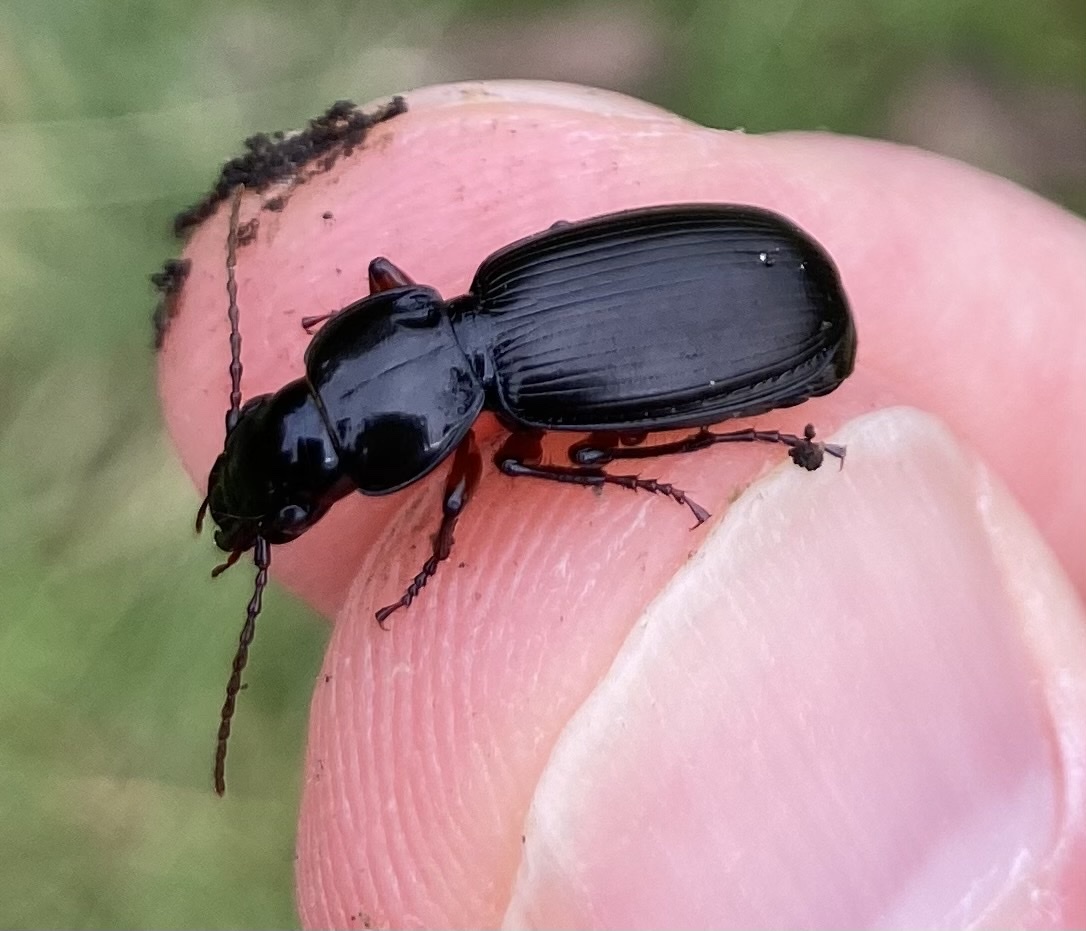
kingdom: Animalia
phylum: Arthropoda
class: Insecta
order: Coleoptera
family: Carabidae
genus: Pterostichus
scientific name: Pterostichus madidus
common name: Black clock
